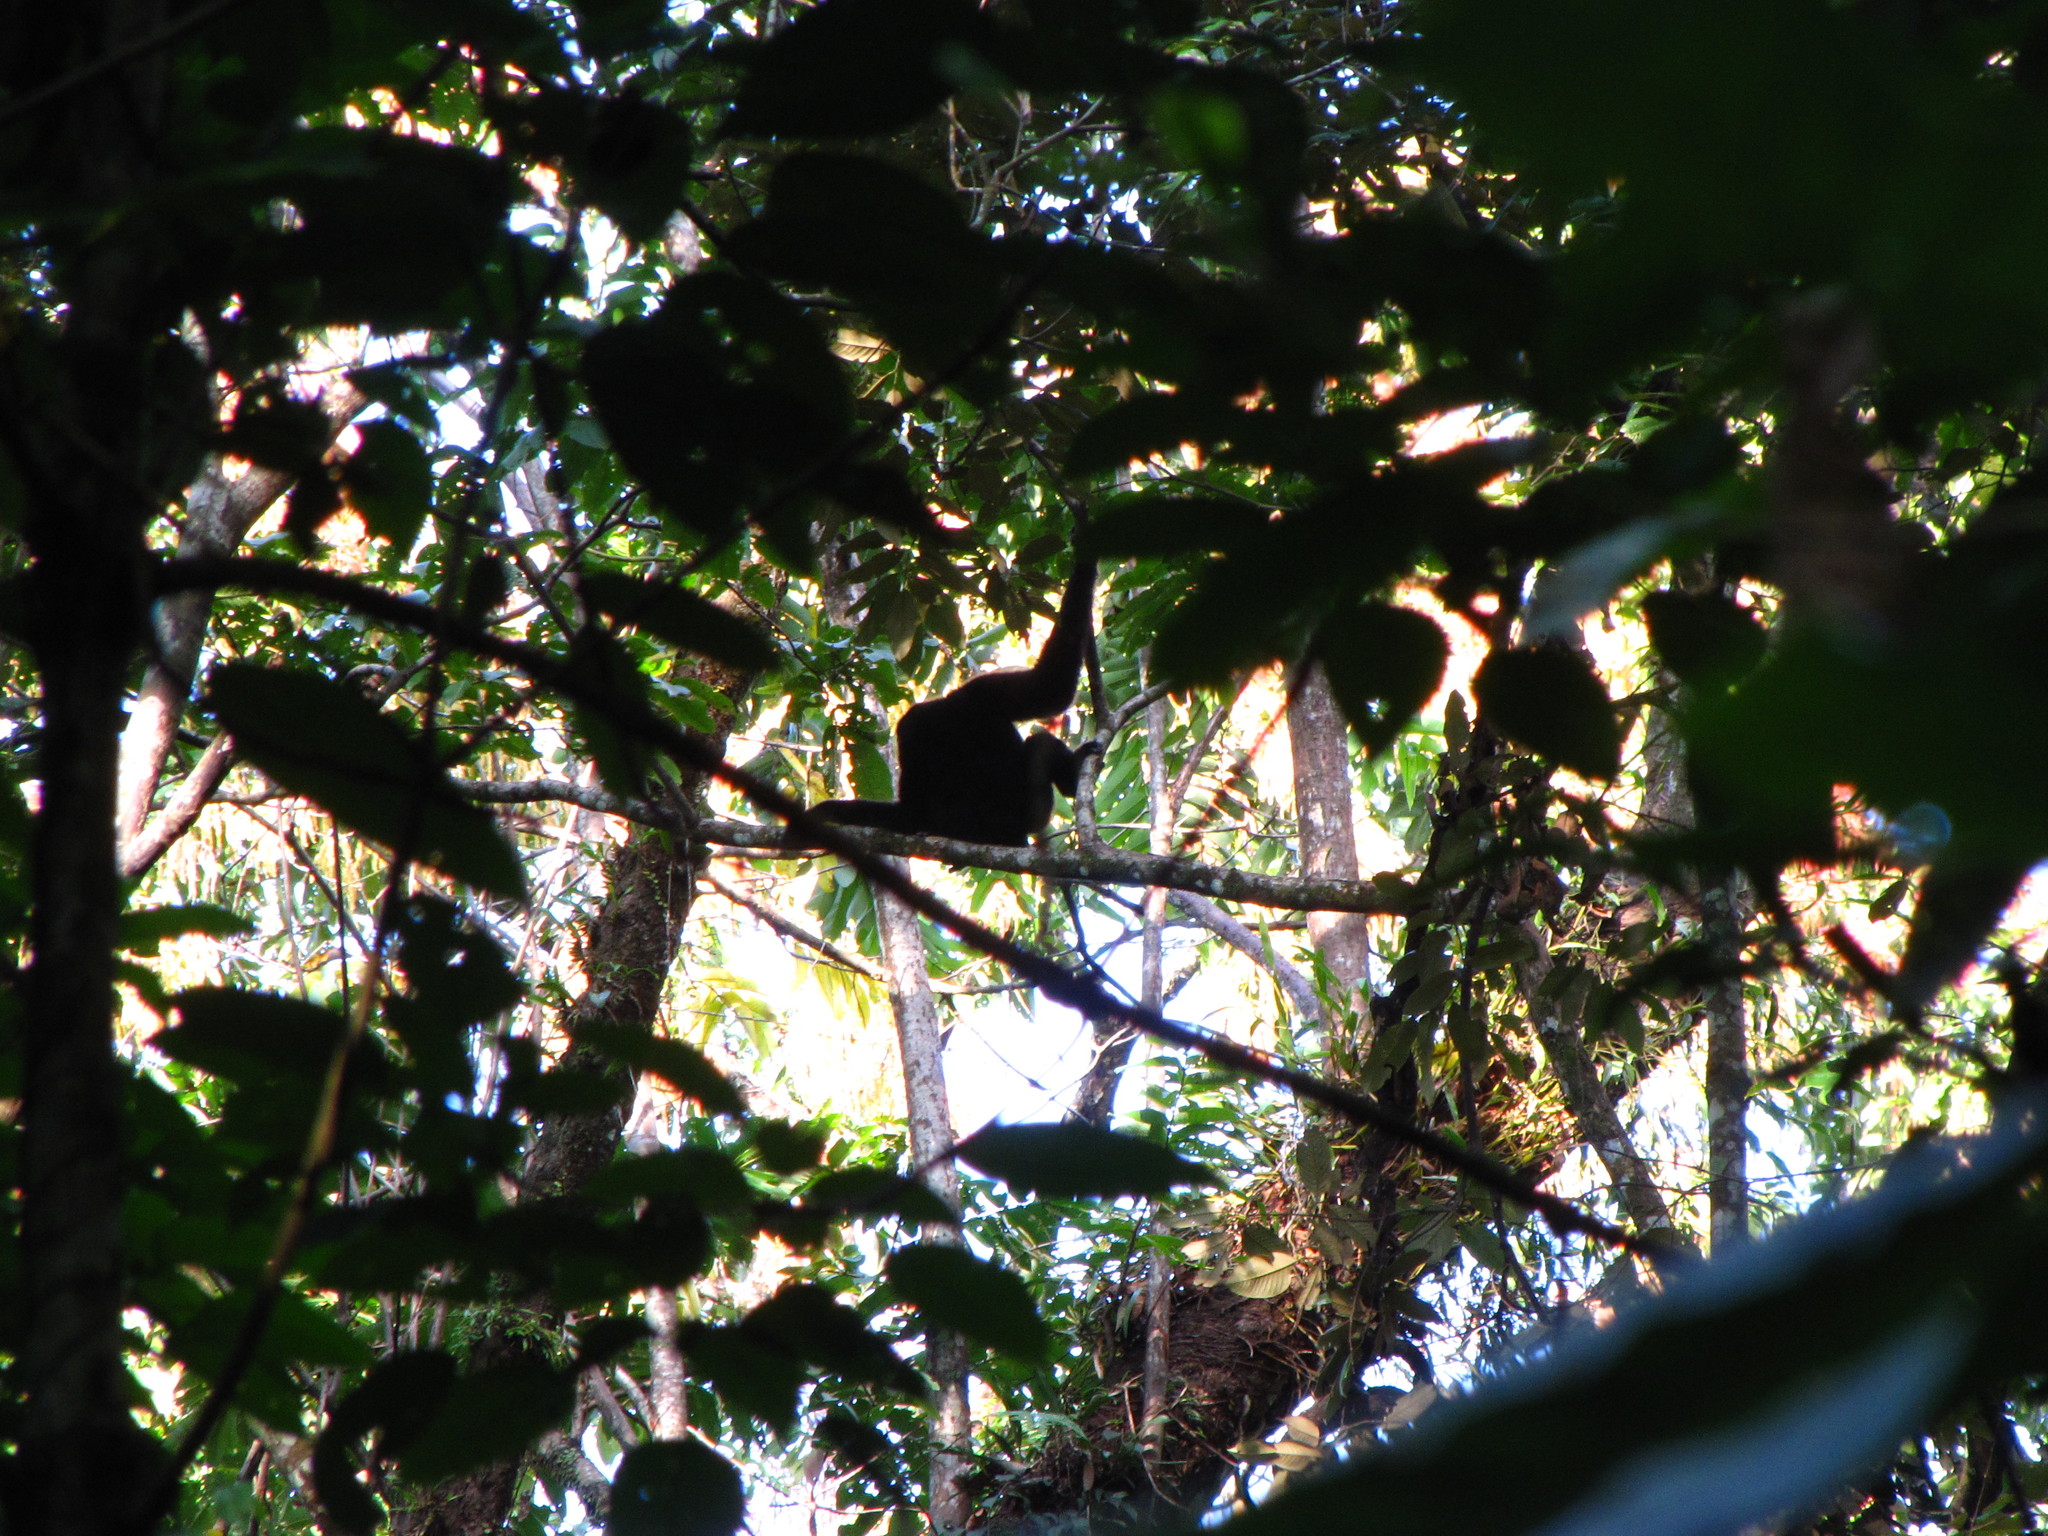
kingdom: Animalia
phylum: Chordata
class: Mammalia
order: Primates
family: Hylobatidae
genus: Hoolock
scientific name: Hoolock hoolock
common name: Western hoolock gibbon
